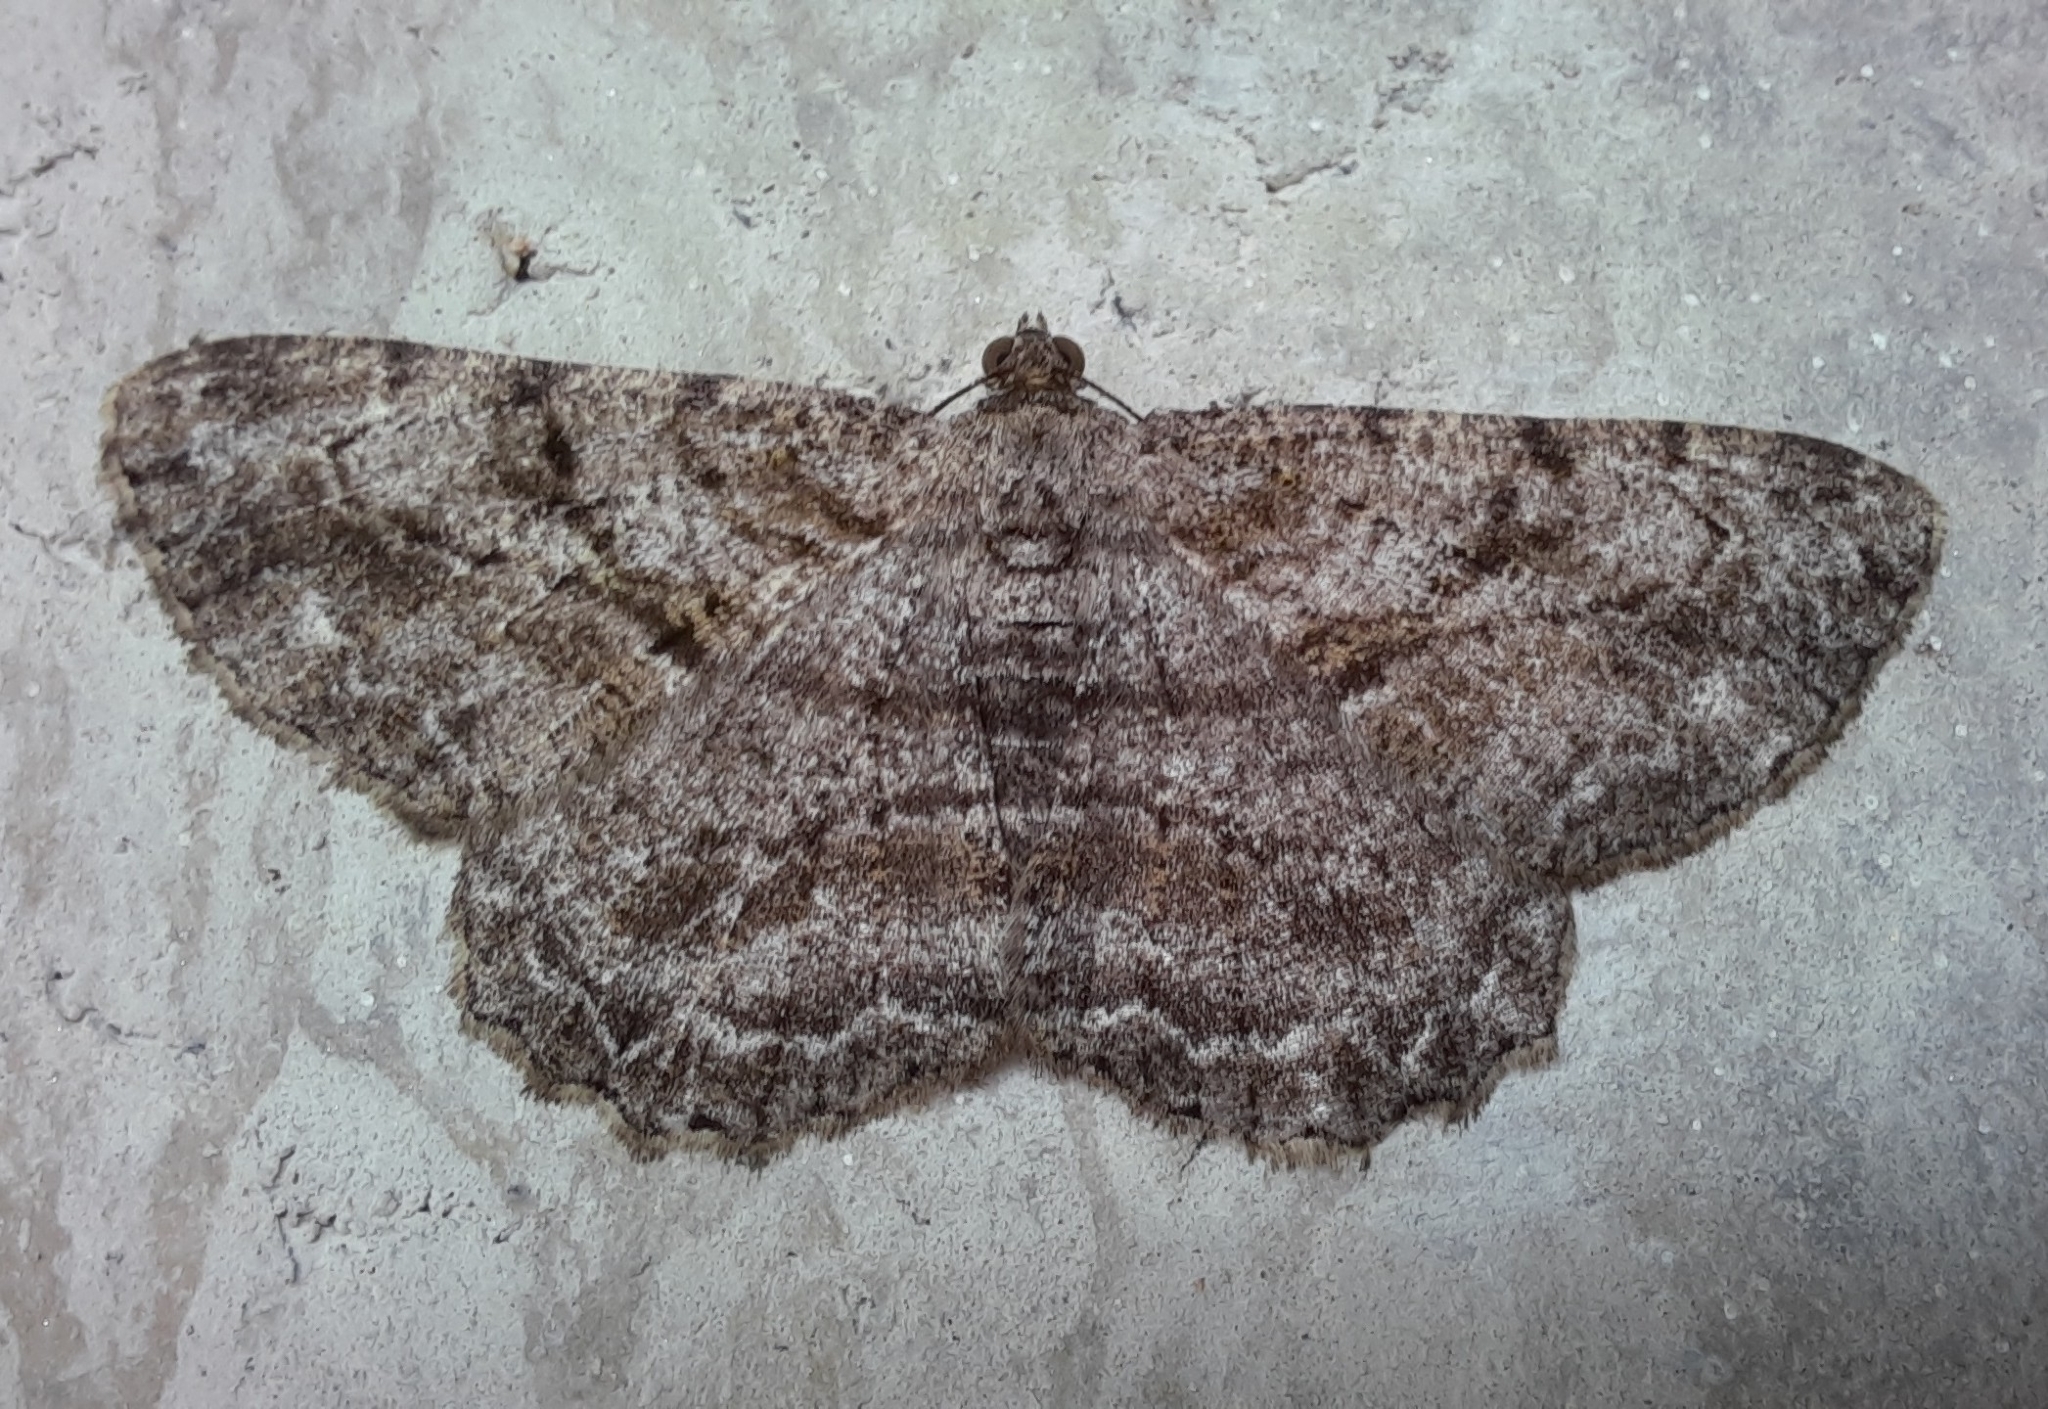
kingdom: Animalia
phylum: Arthropoda
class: Insecta
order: Lepidoptera
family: Geometridae
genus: Peribatodes
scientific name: Peribatodes rhomboidaria
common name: Willow beauty
